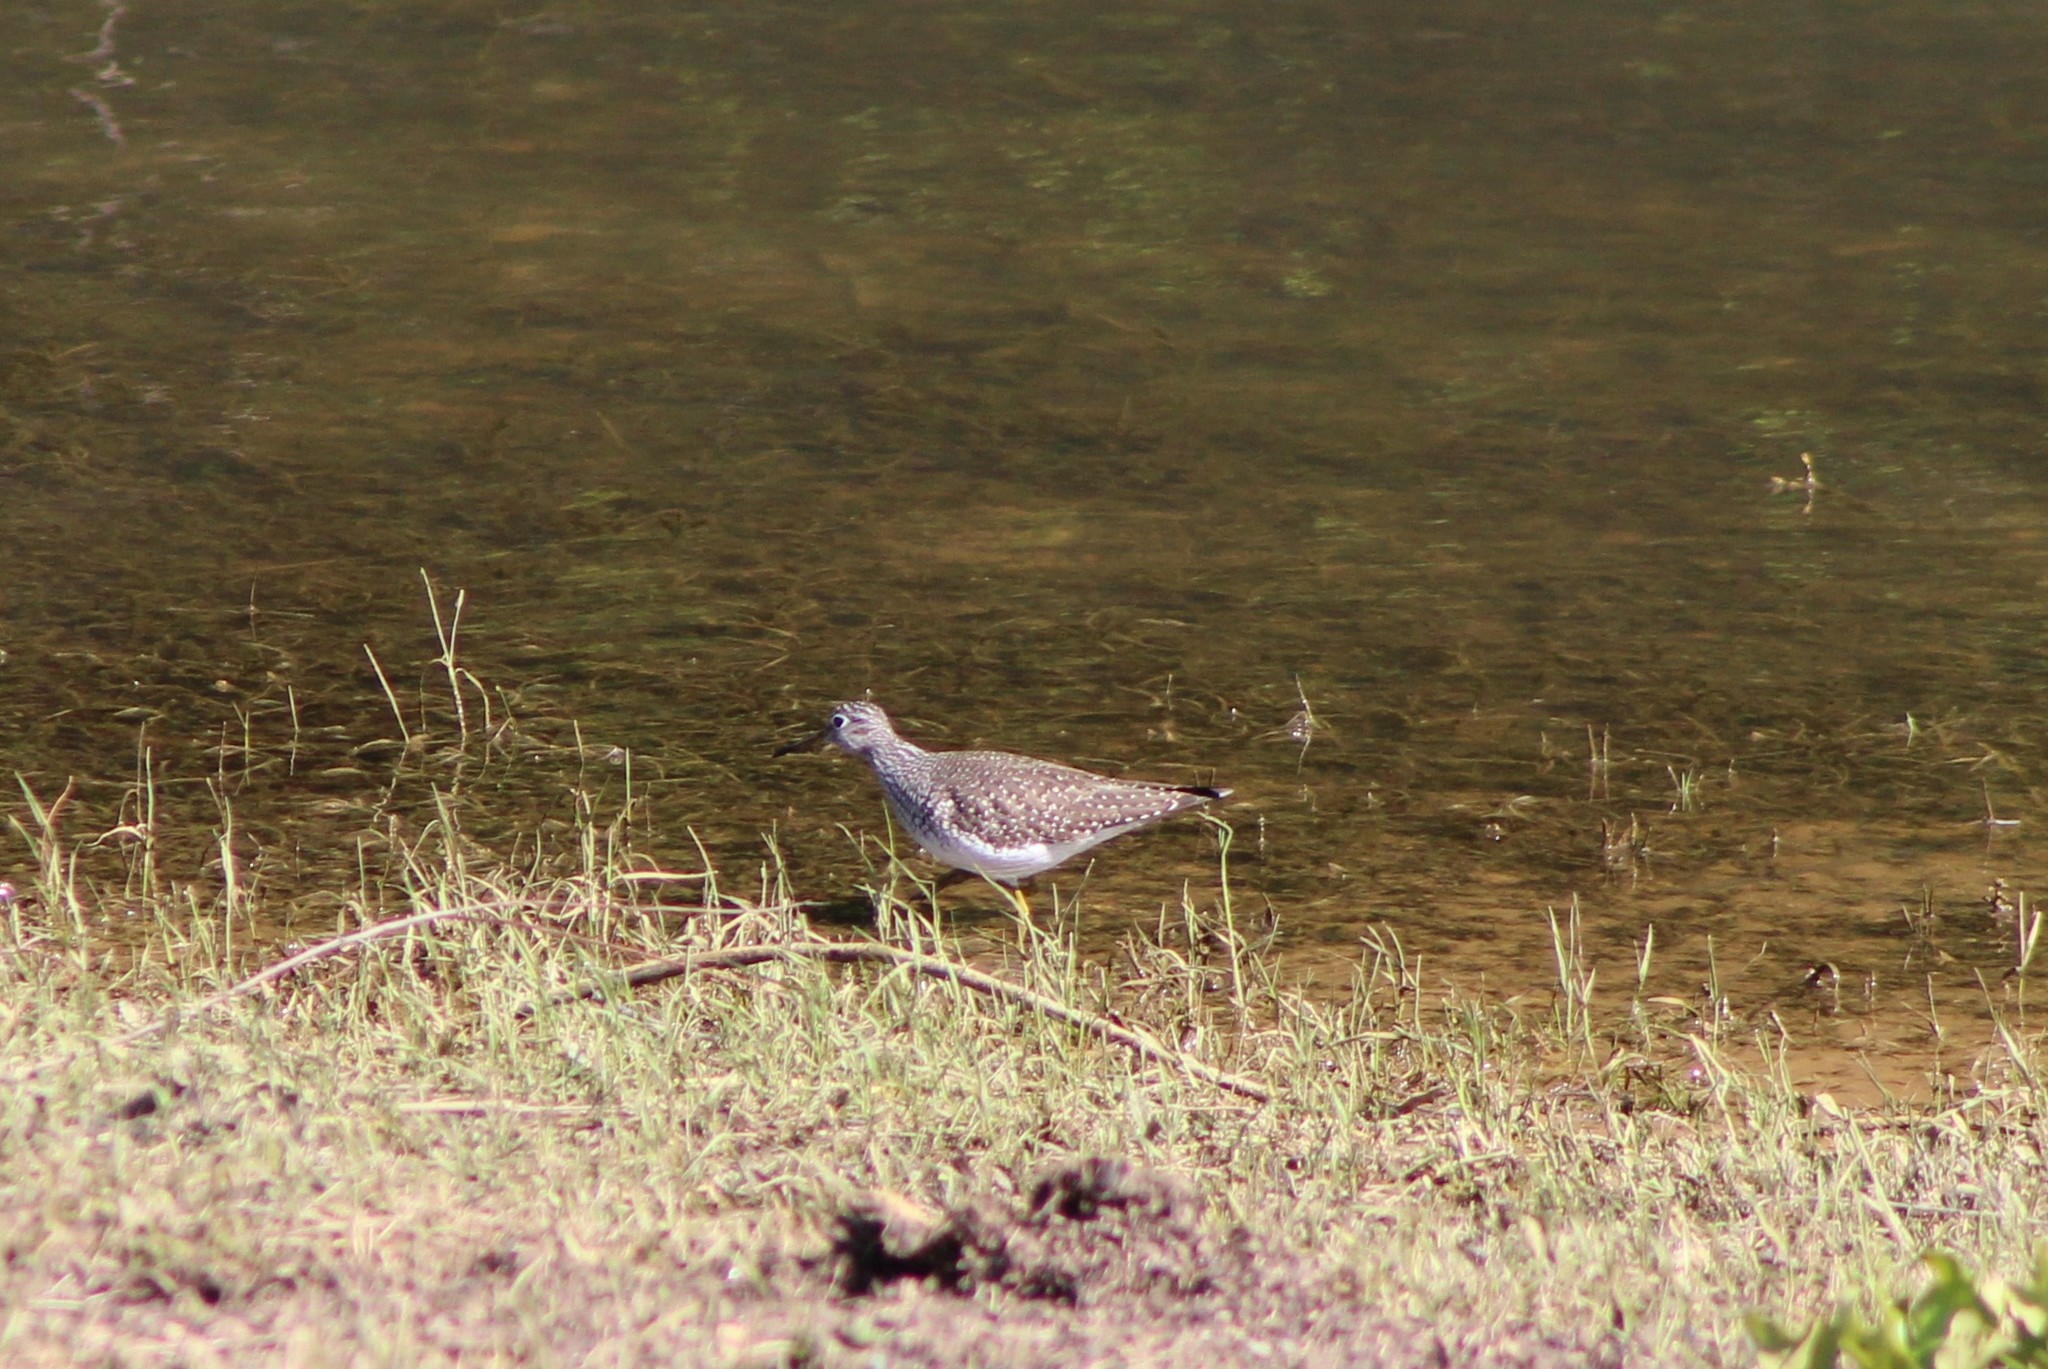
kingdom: Animalia
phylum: Chordata
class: Aves
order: Charadriiformes
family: Scolopacidae
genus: Tringa
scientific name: Tringa solitaria
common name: Solitary sandpiper
